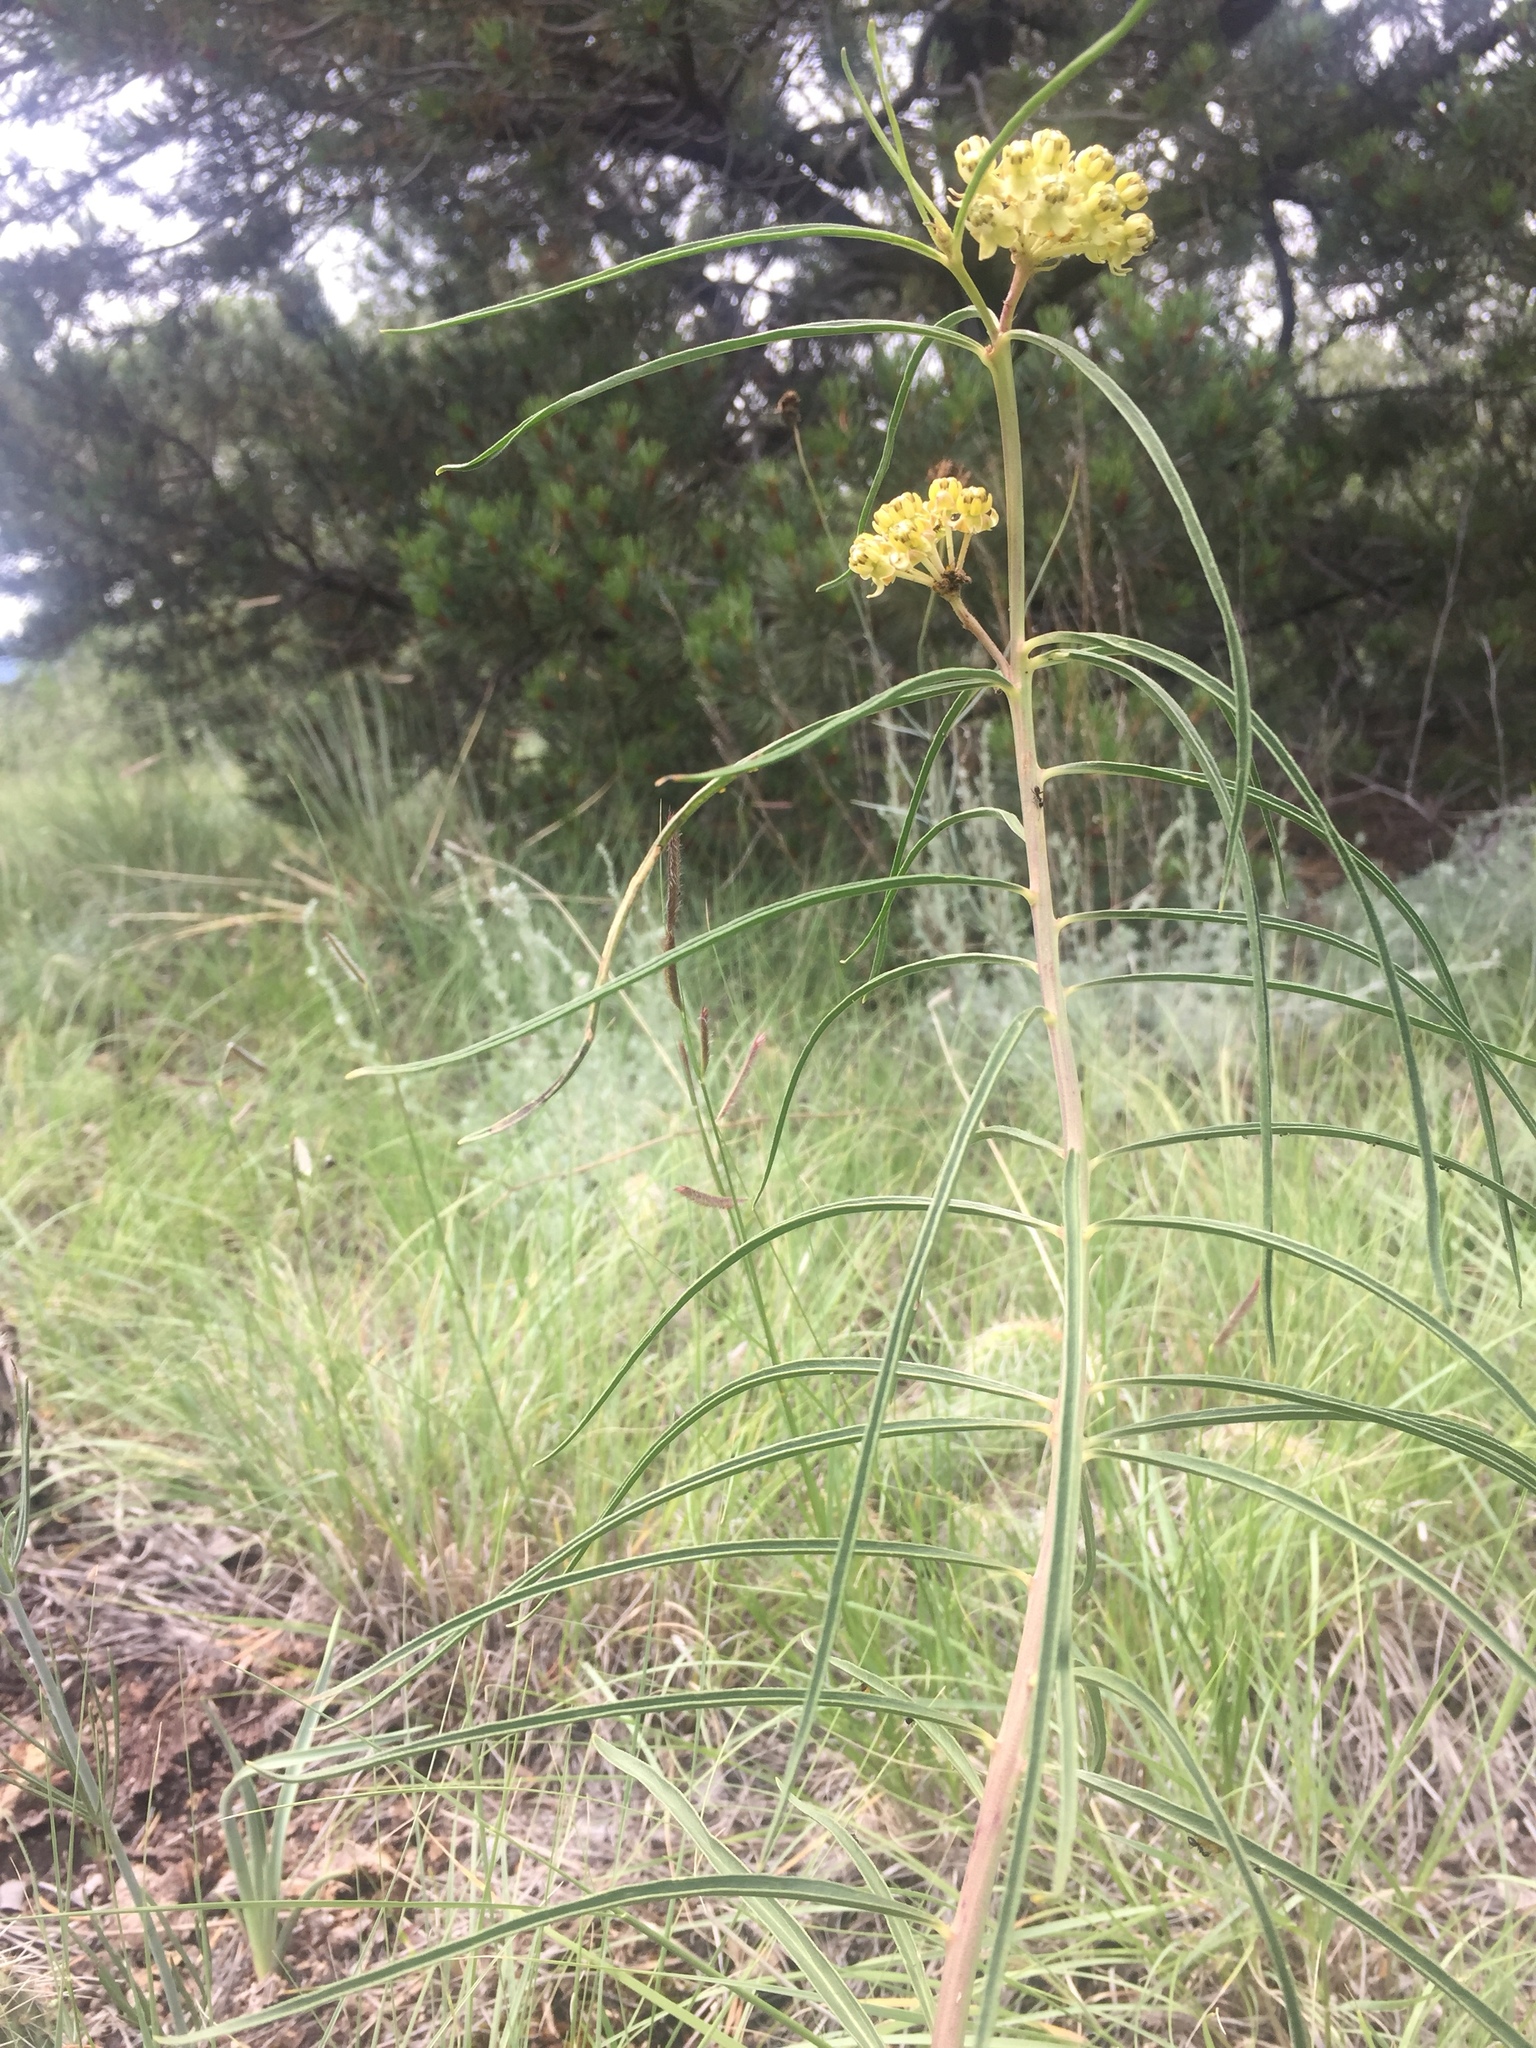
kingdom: Plantae
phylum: Tracheophyta
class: Magnoliopsida
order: Gentianales
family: Apocynaceae
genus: Asclepias
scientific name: Asclepias engelmanniana
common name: Engelmann's milkweed
